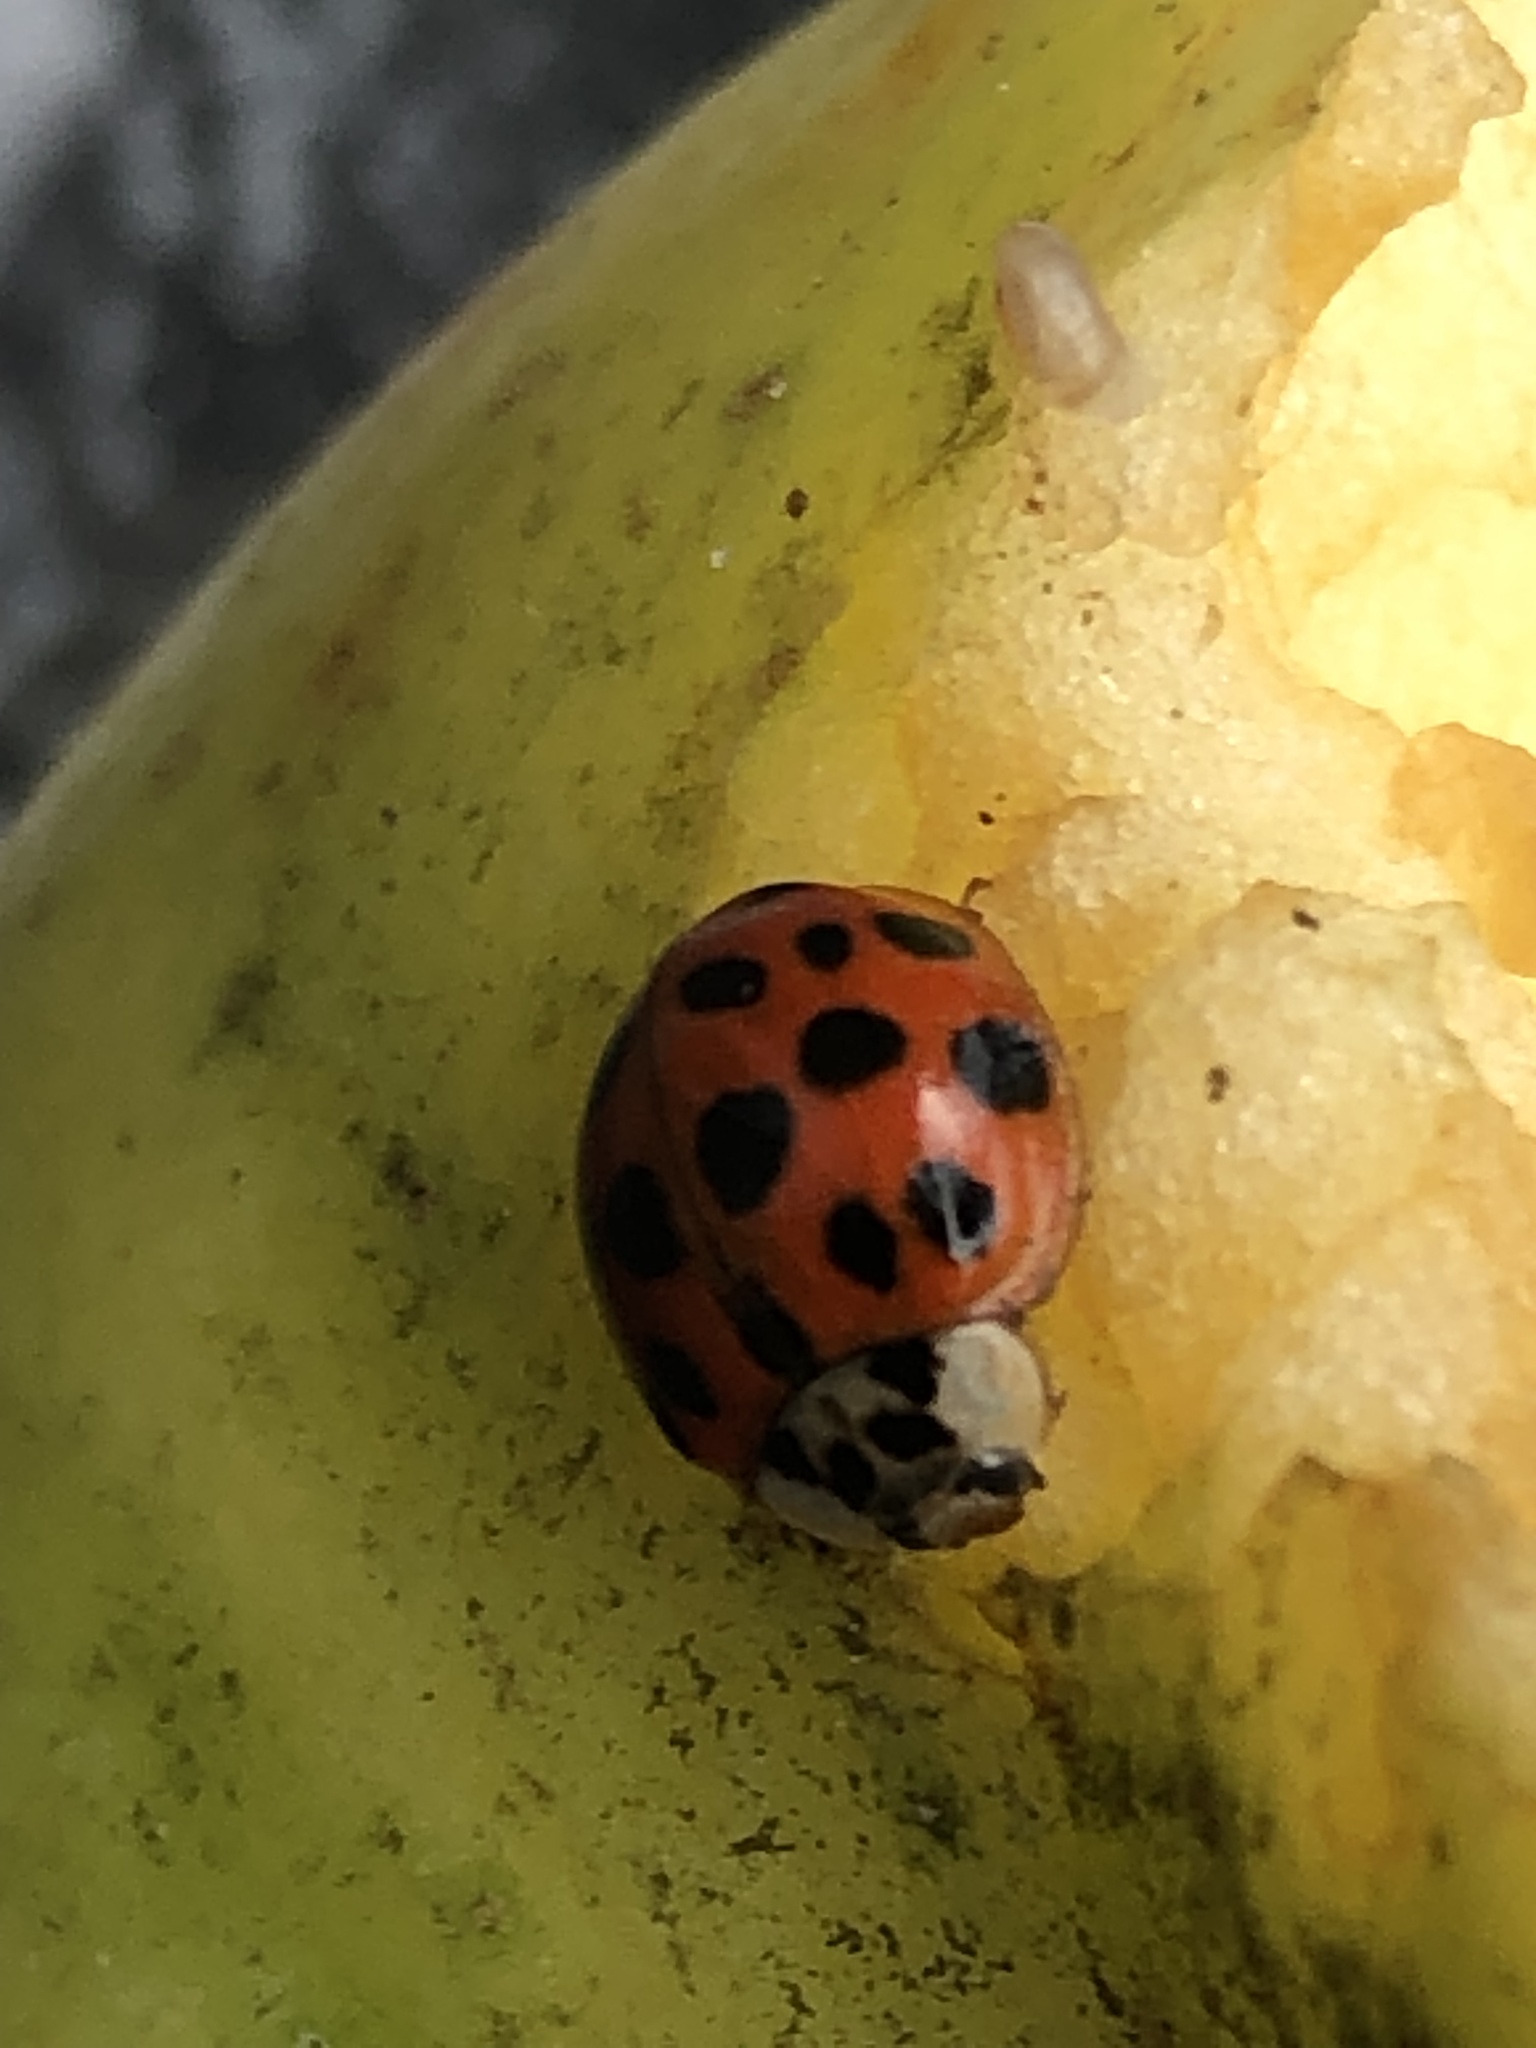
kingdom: Animalia
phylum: Arthropoda
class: Insecta
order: Coleoptera
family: Coccinellidae
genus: Harmonia
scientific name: Harmonia axyridis
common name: Harlequin ladybird
